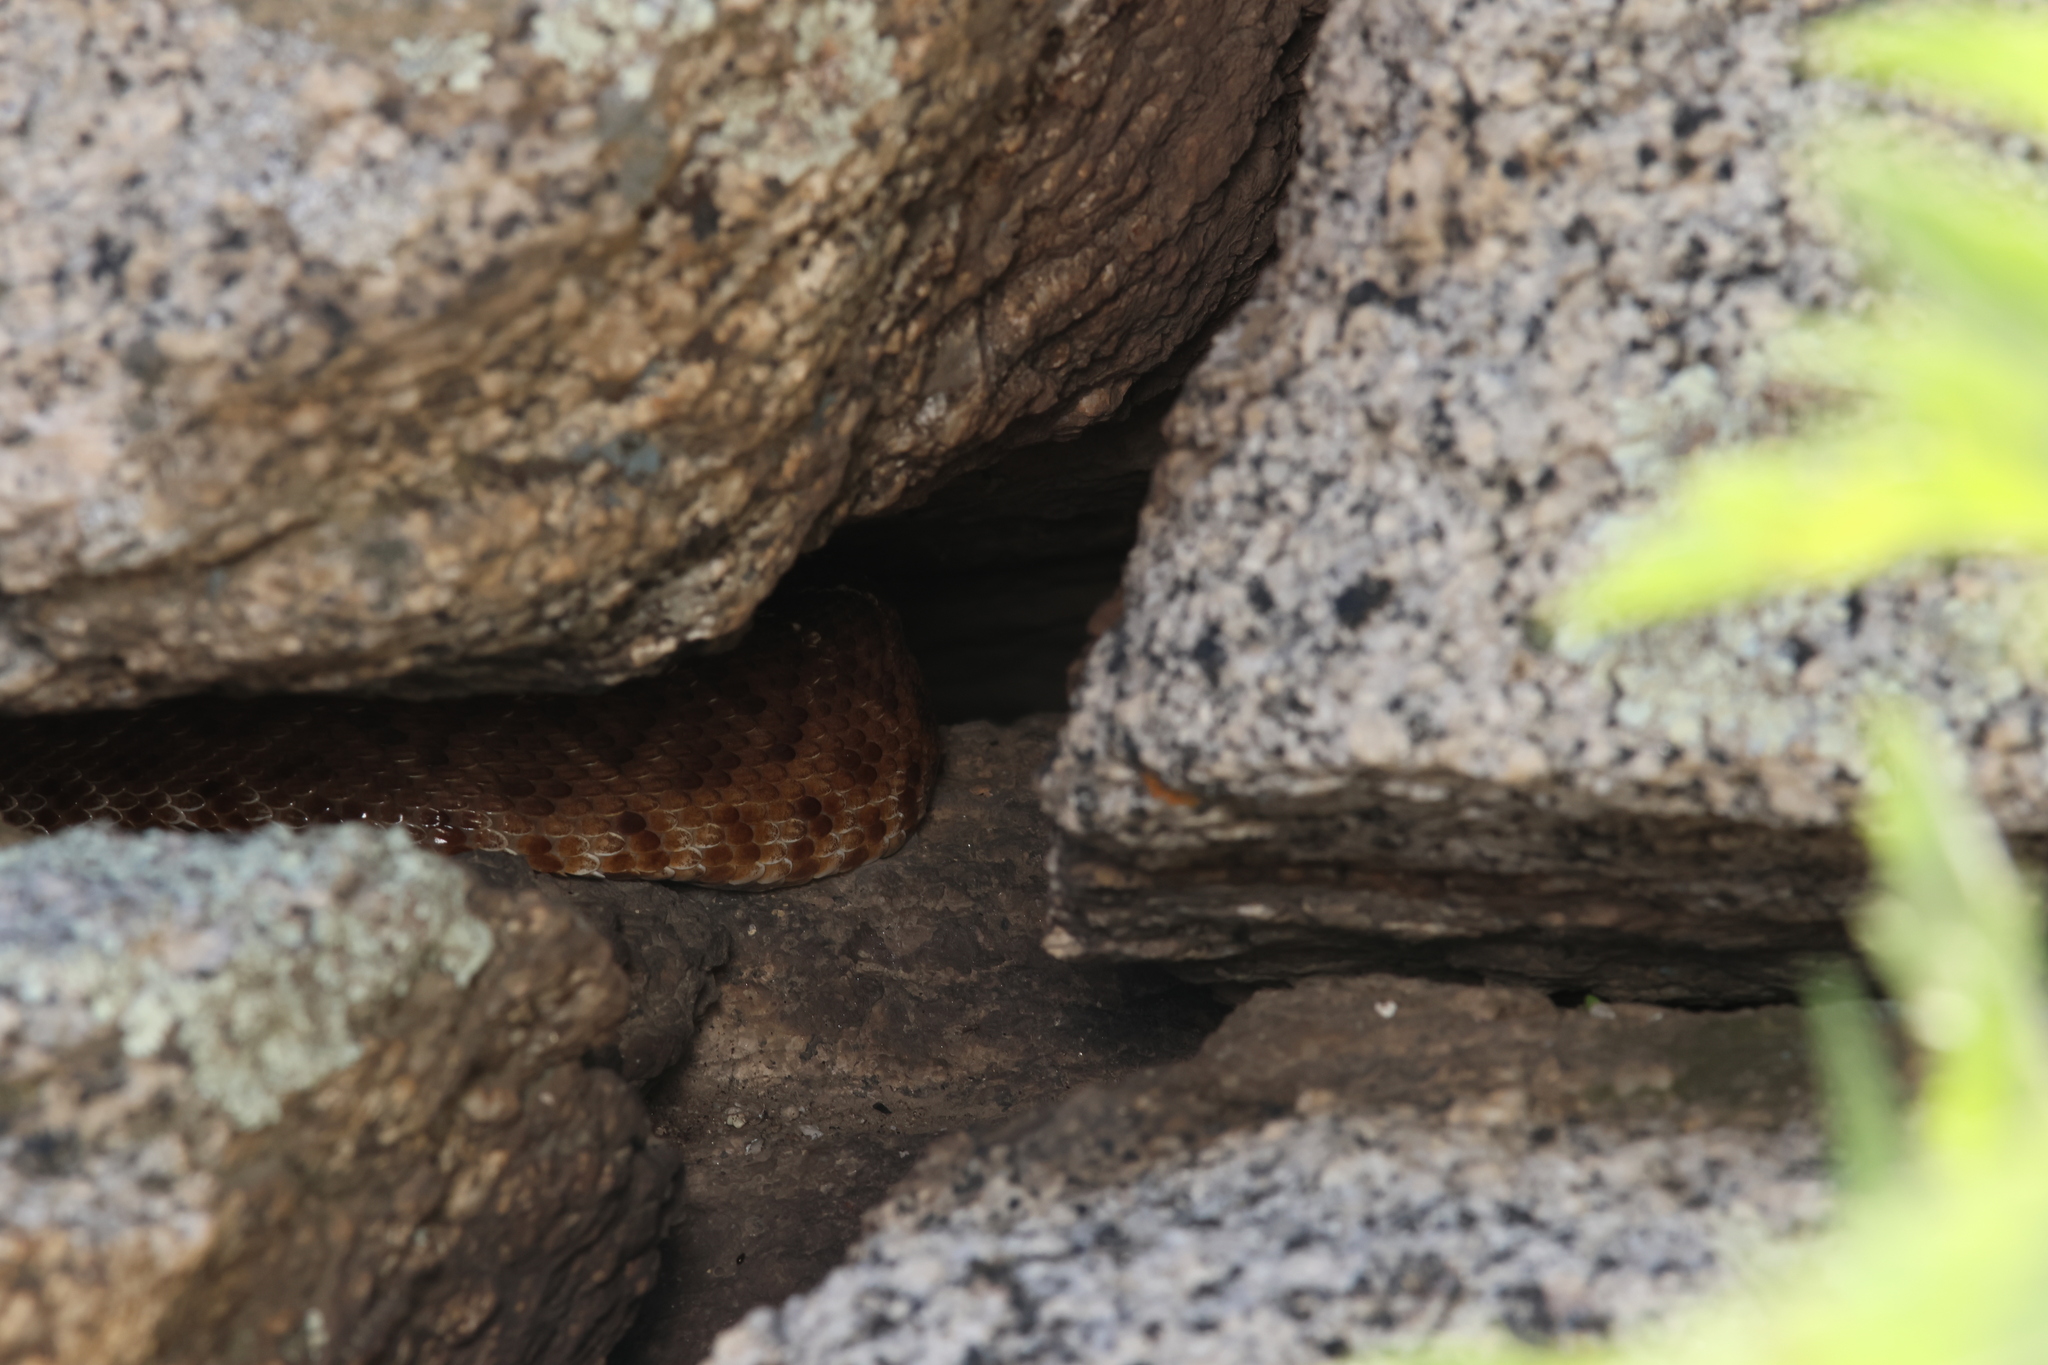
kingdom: Animalia
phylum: Chordata
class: Squamata
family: Viperidae
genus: Crotalus
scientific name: Crotalus ruber
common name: Red diamond rattlesnake
